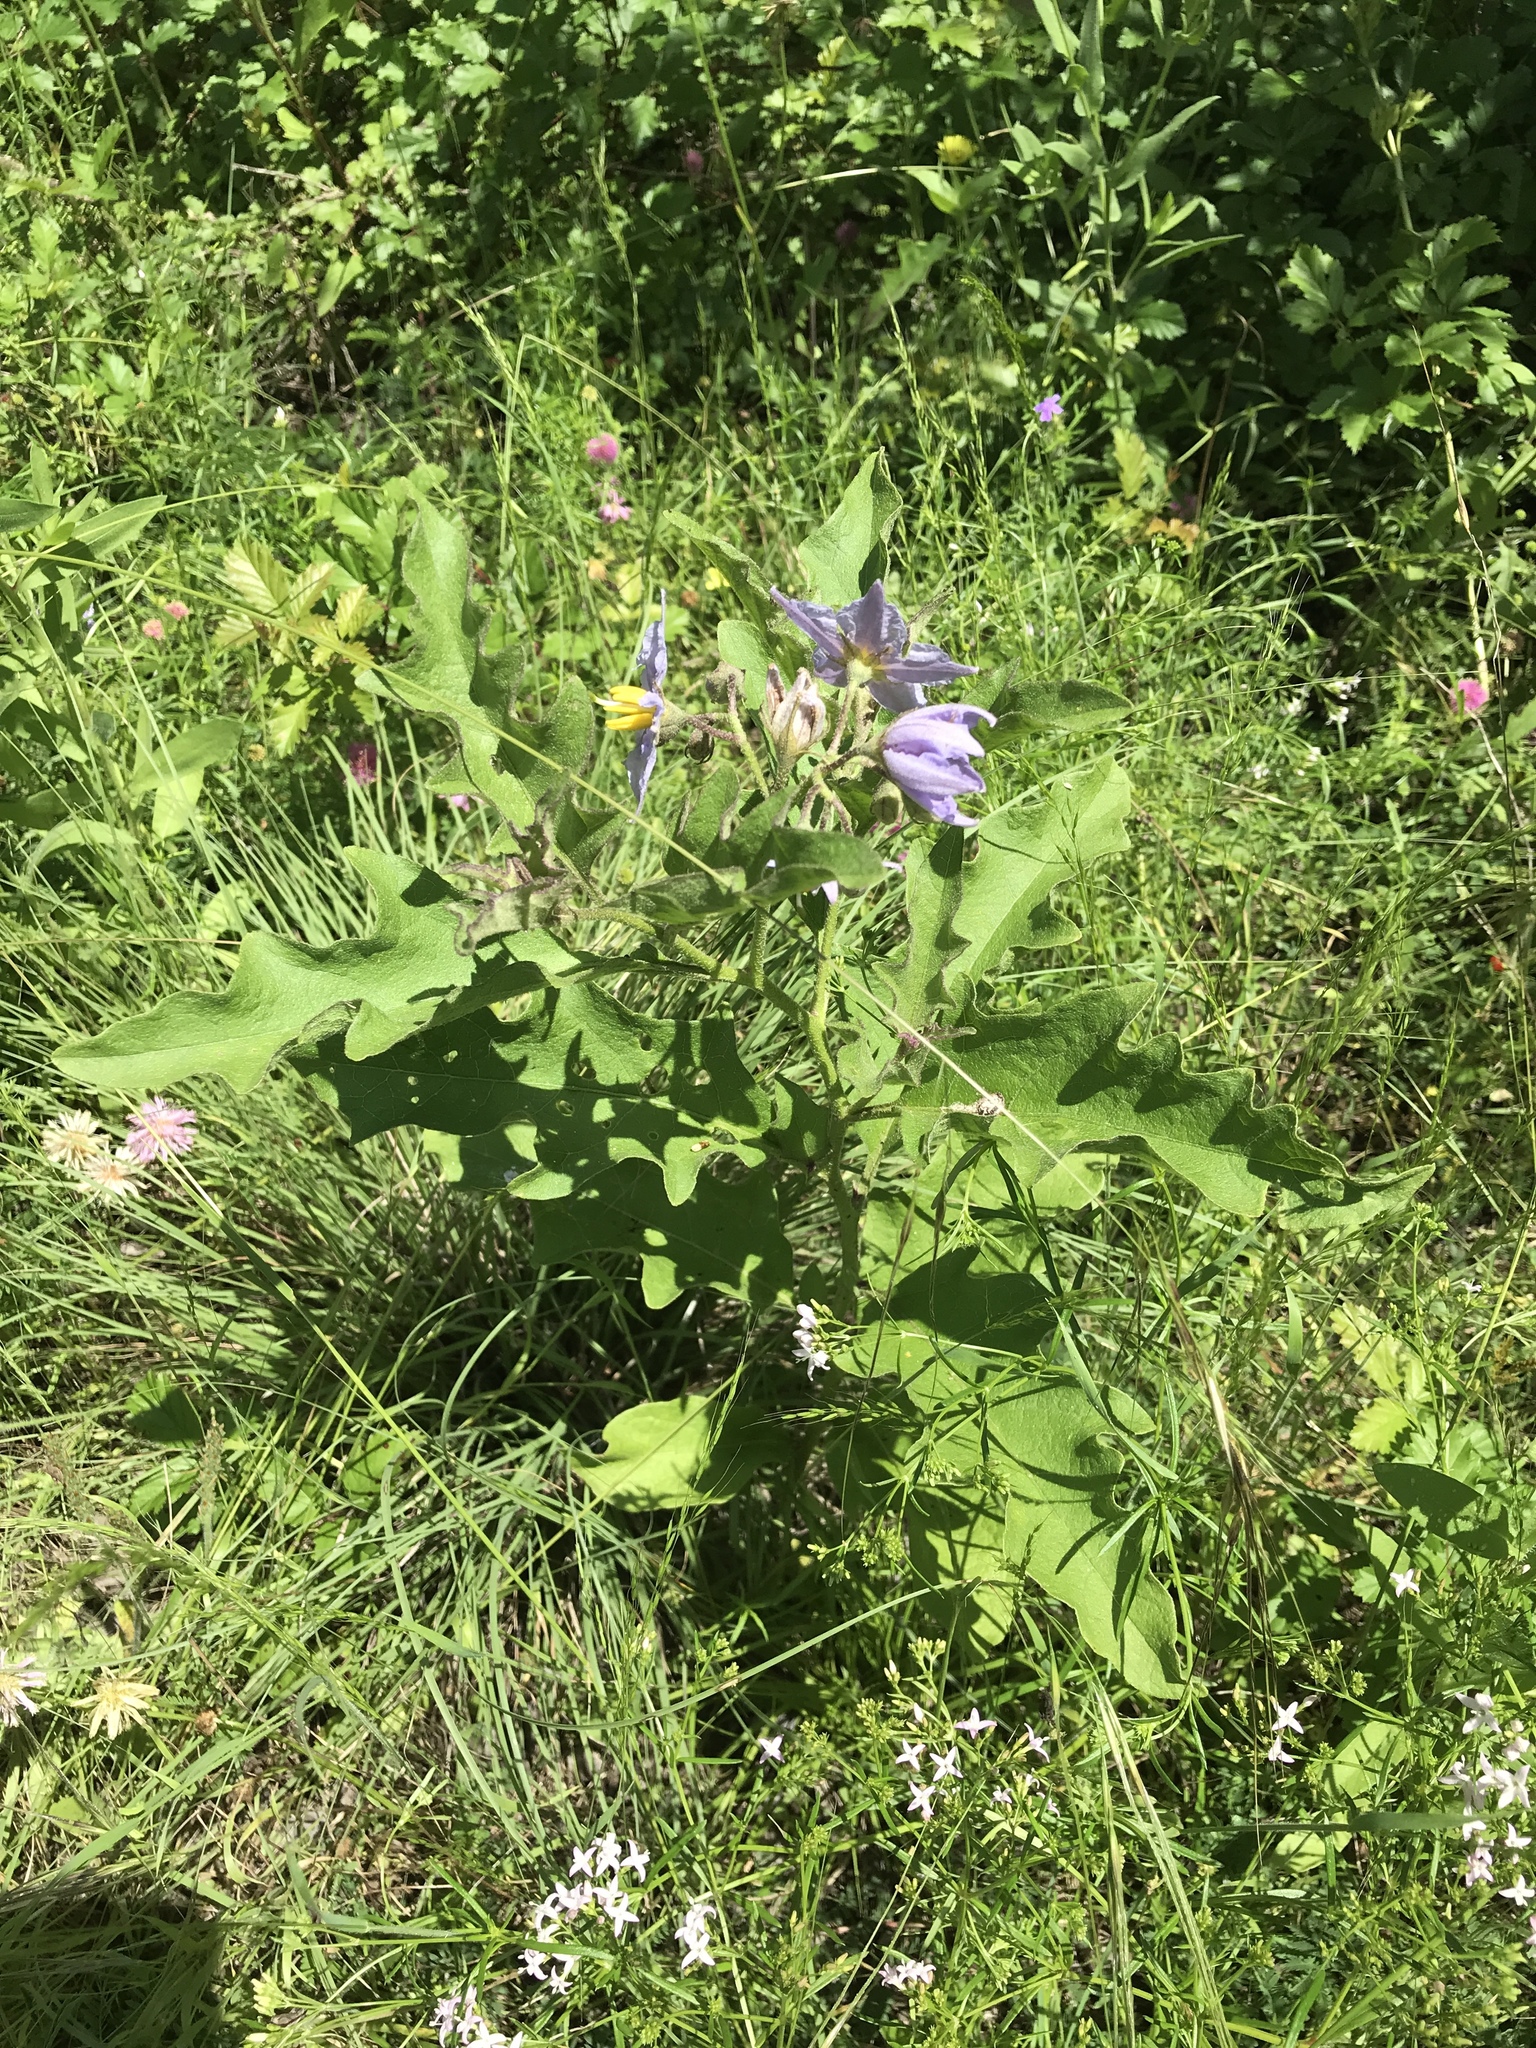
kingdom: Plantae
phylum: Tracheophyta
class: Magnoliopsida
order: Solanales
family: Solanaceae
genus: Solanum
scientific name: Solanum dimidiatum
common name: Carolina horse-nettle
